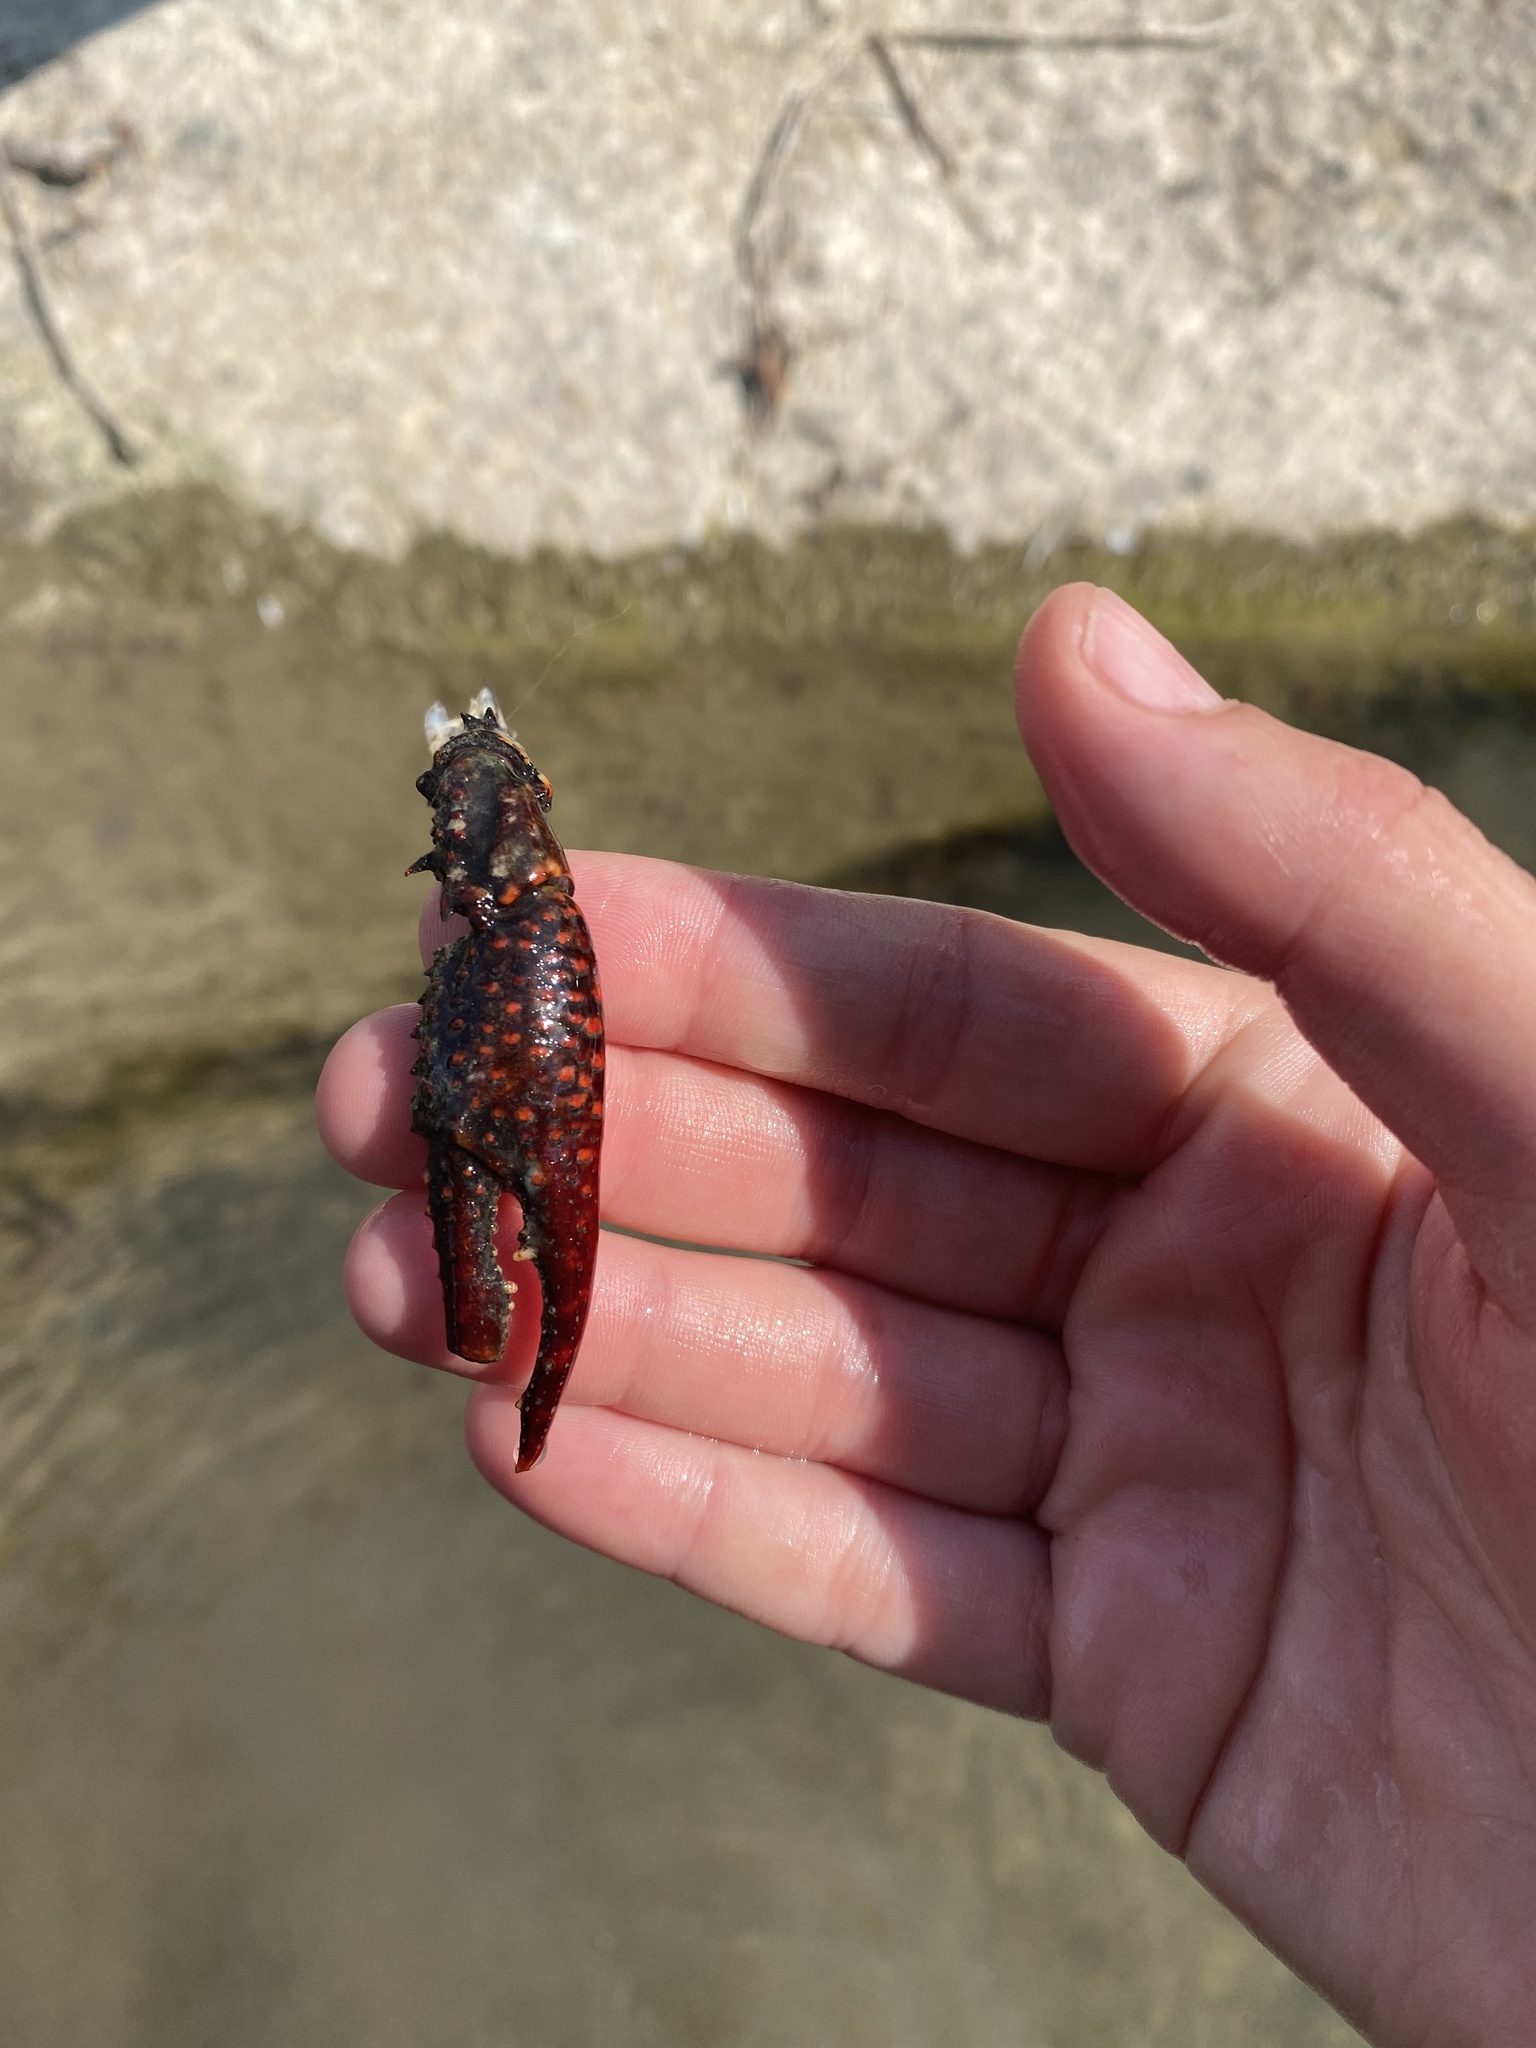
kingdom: Animalia
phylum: Arthropoda
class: Malacostraca
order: Decapoda
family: Cambaridae
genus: Procambarus
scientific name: Procambarus clarkii
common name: Red swamp crayfish
